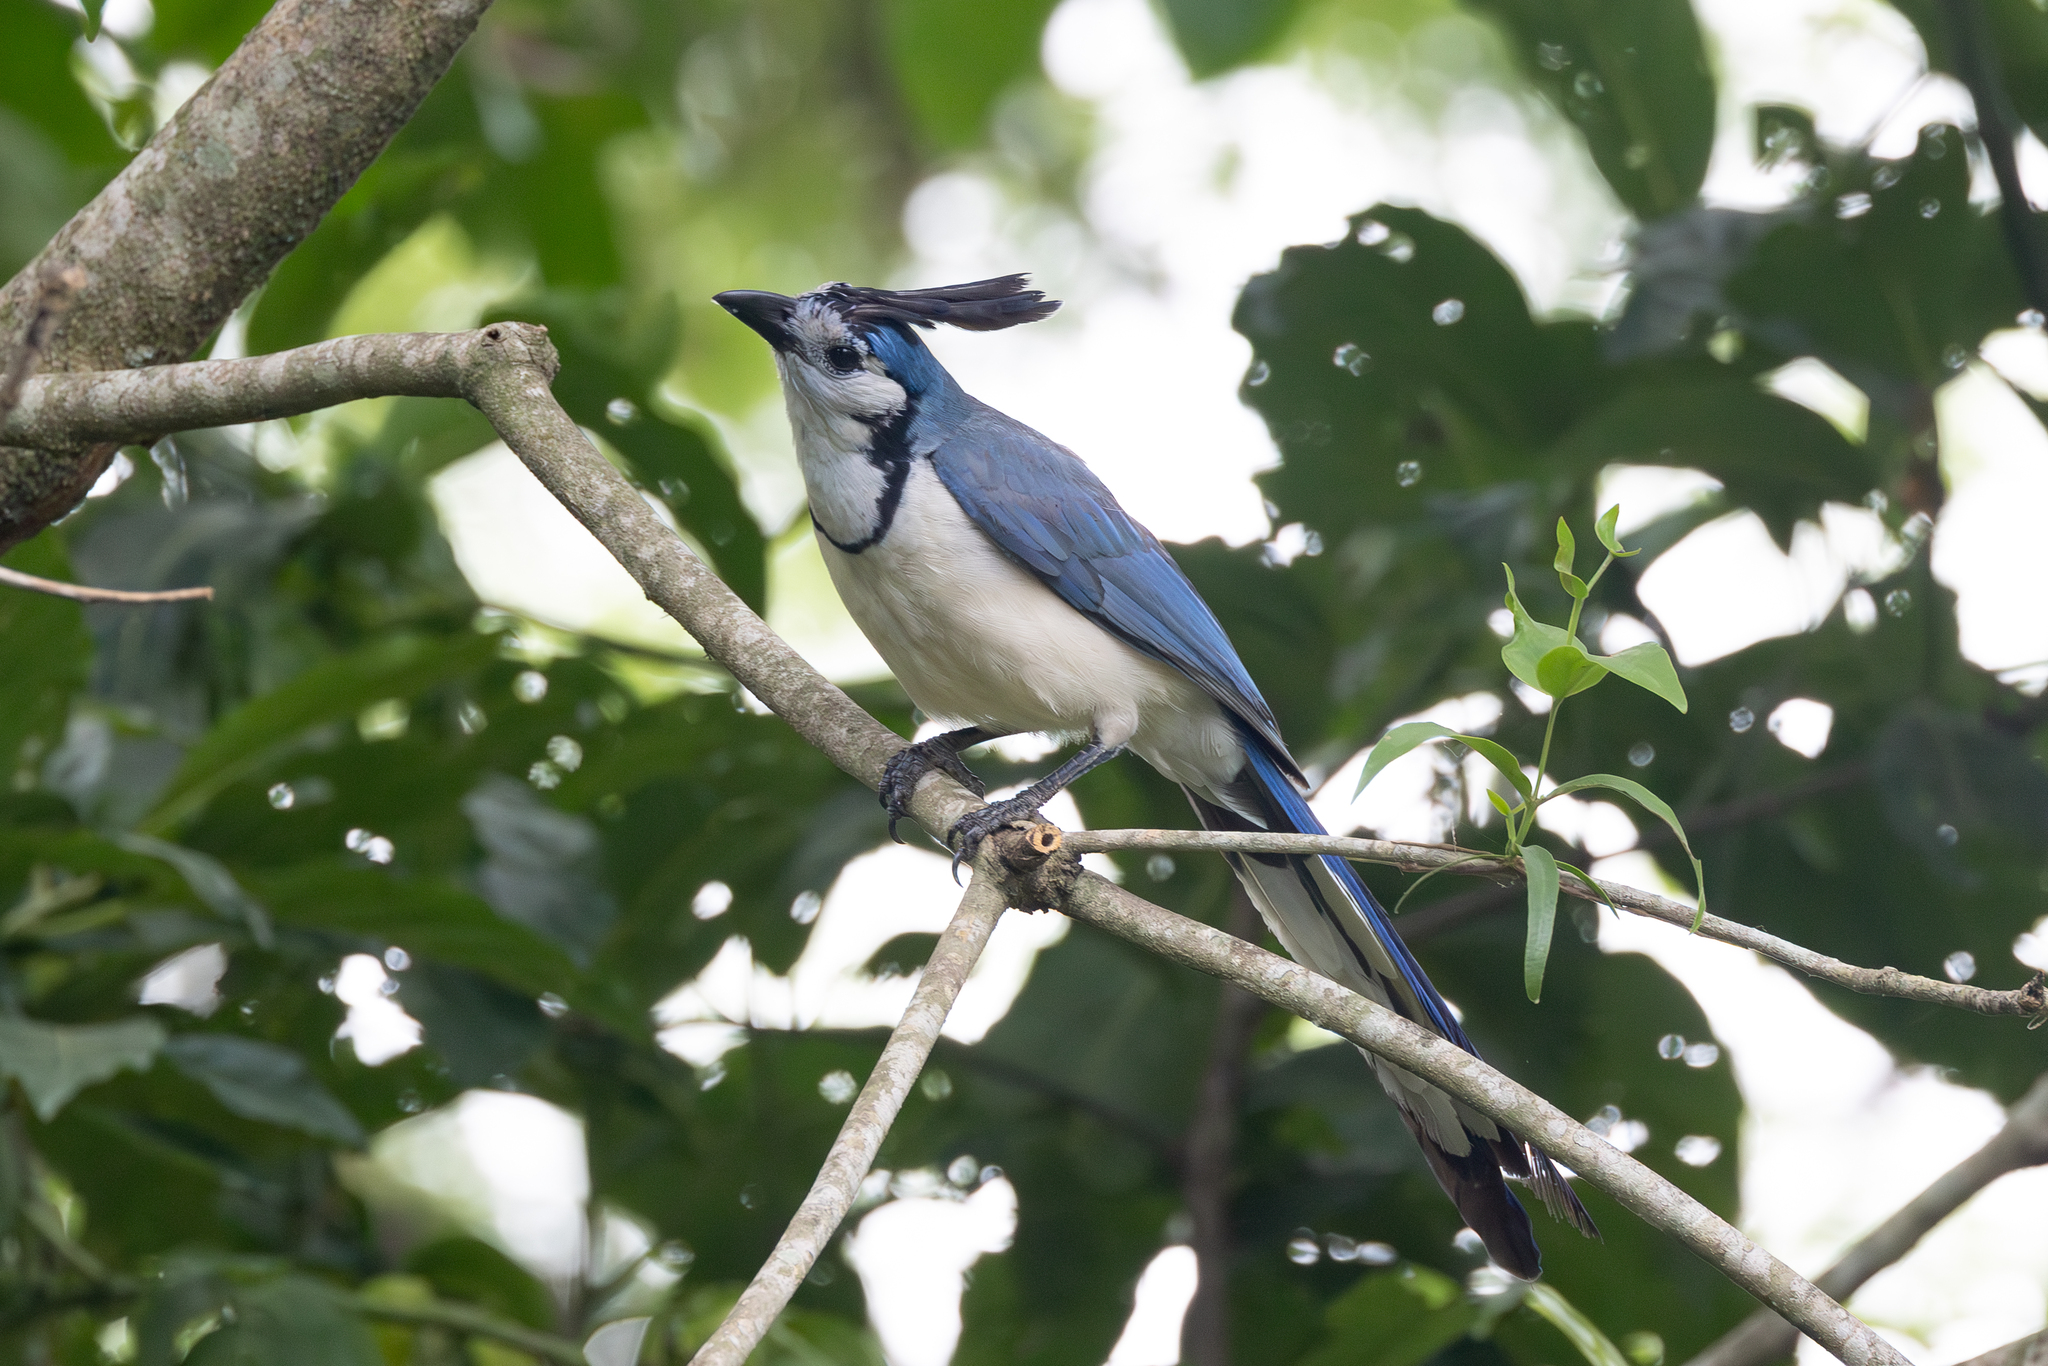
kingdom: Animalia
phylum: Chordata
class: Aves
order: Passeriformes
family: Corvidae
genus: Calocitta
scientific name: Calocitta formosa
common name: White-throated magpie-jay
